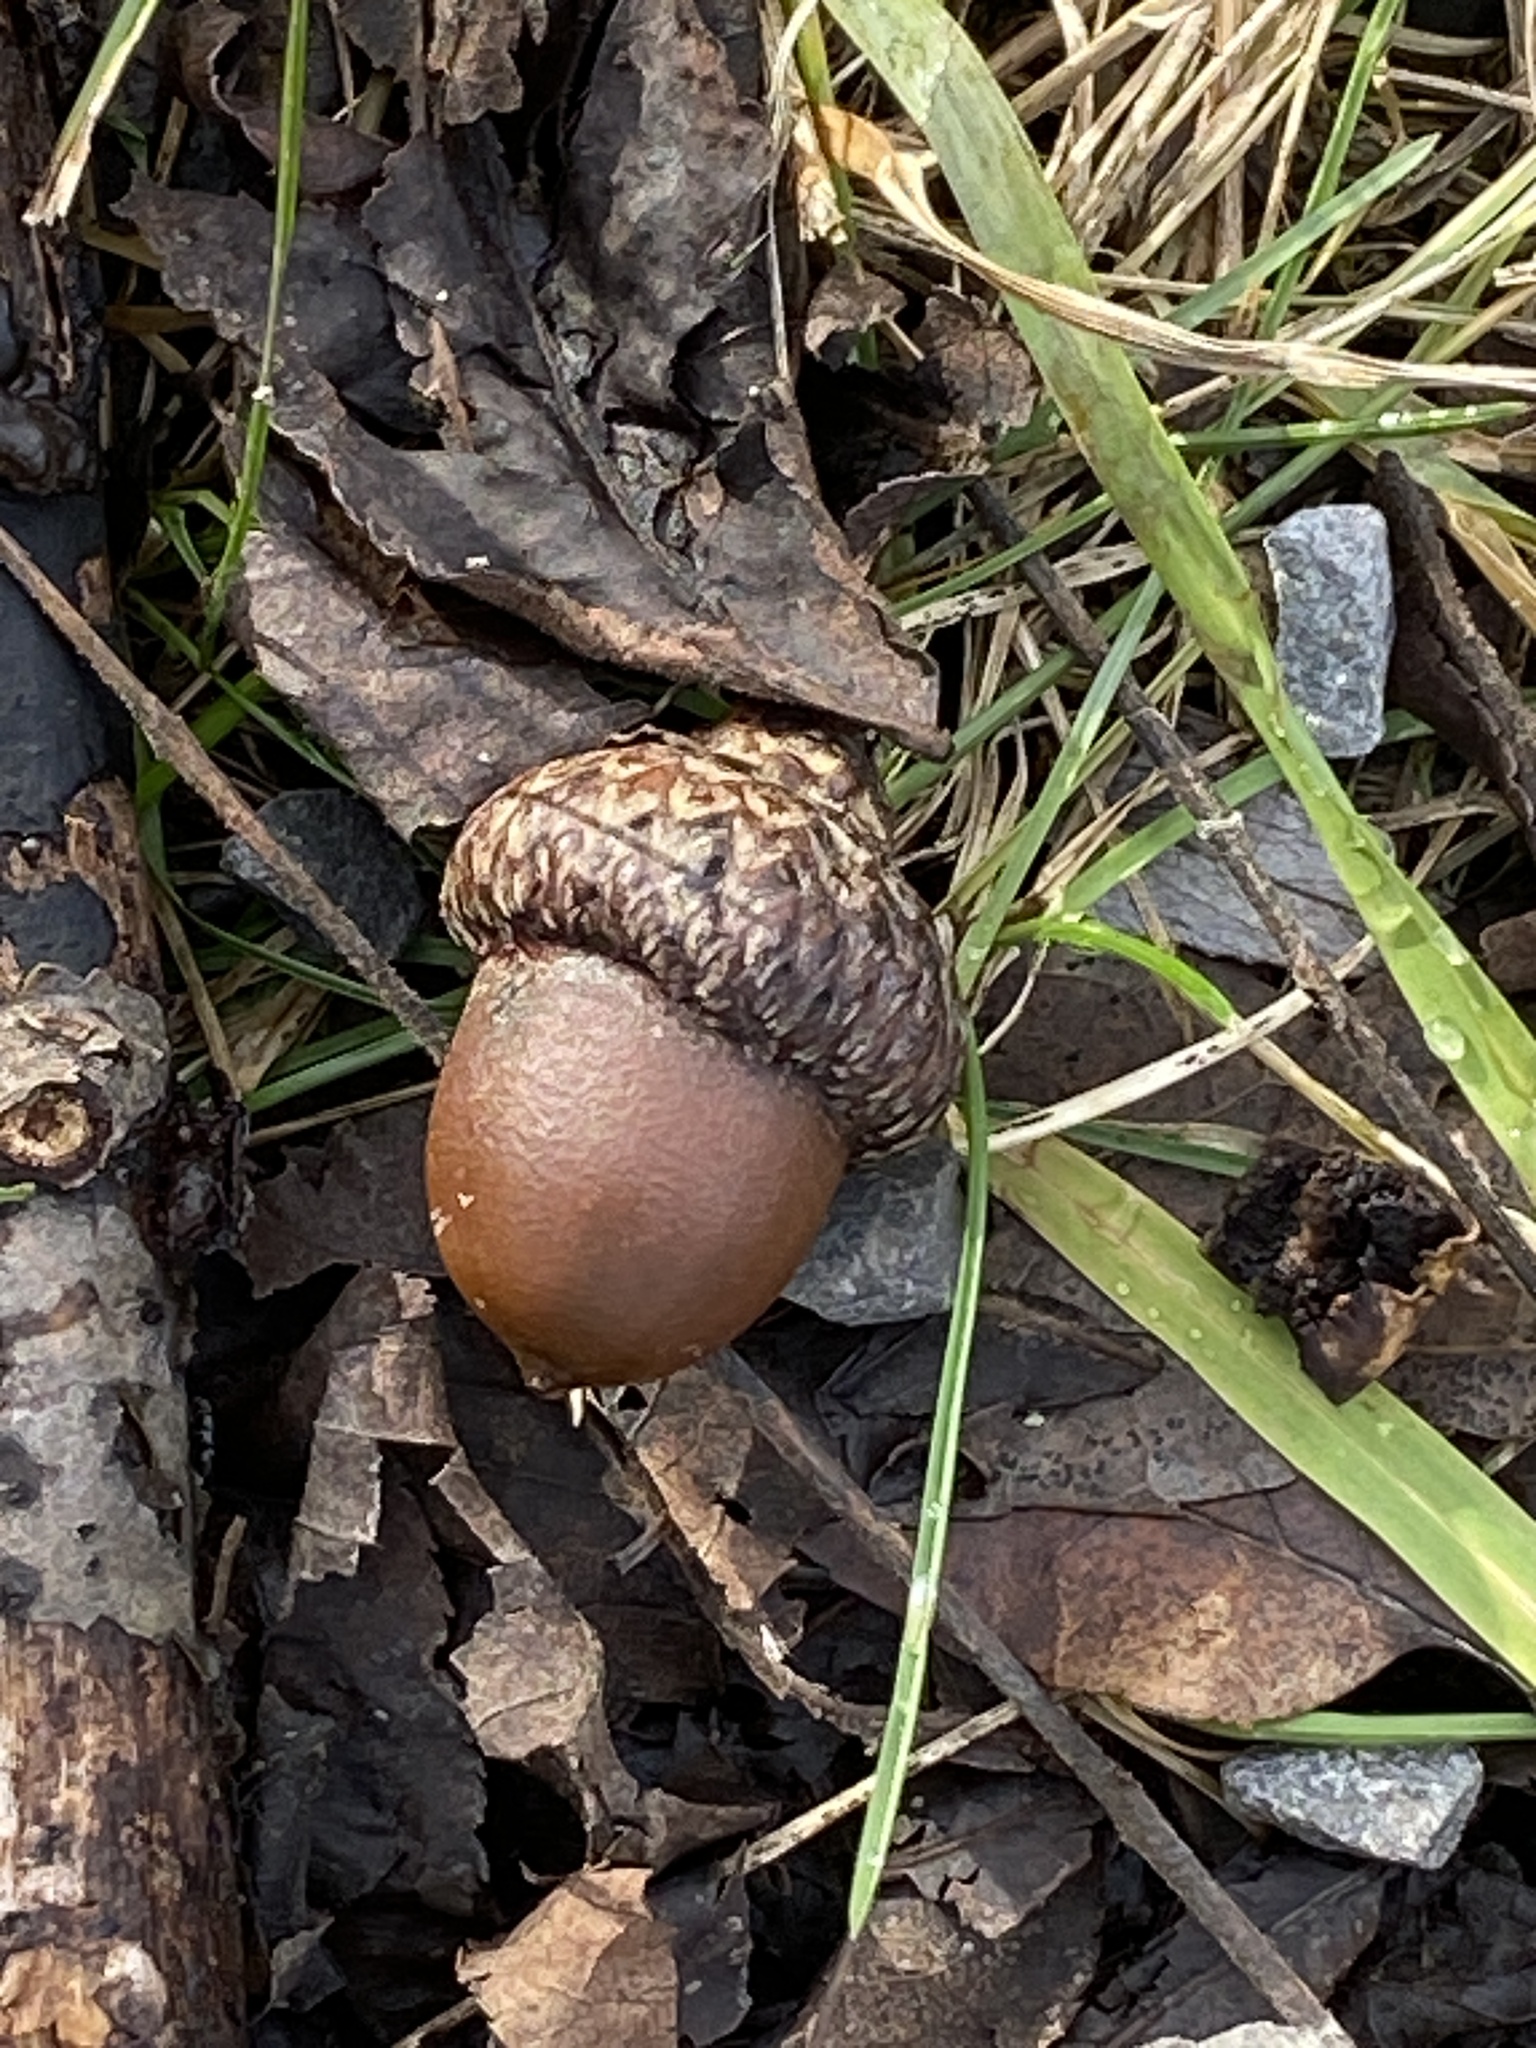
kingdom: Plantae
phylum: Tracheophyta
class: Magnoliopsida
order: Fagales
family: Fagaceae
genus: Quercus
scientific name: Quercus rubra
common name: Red oak
